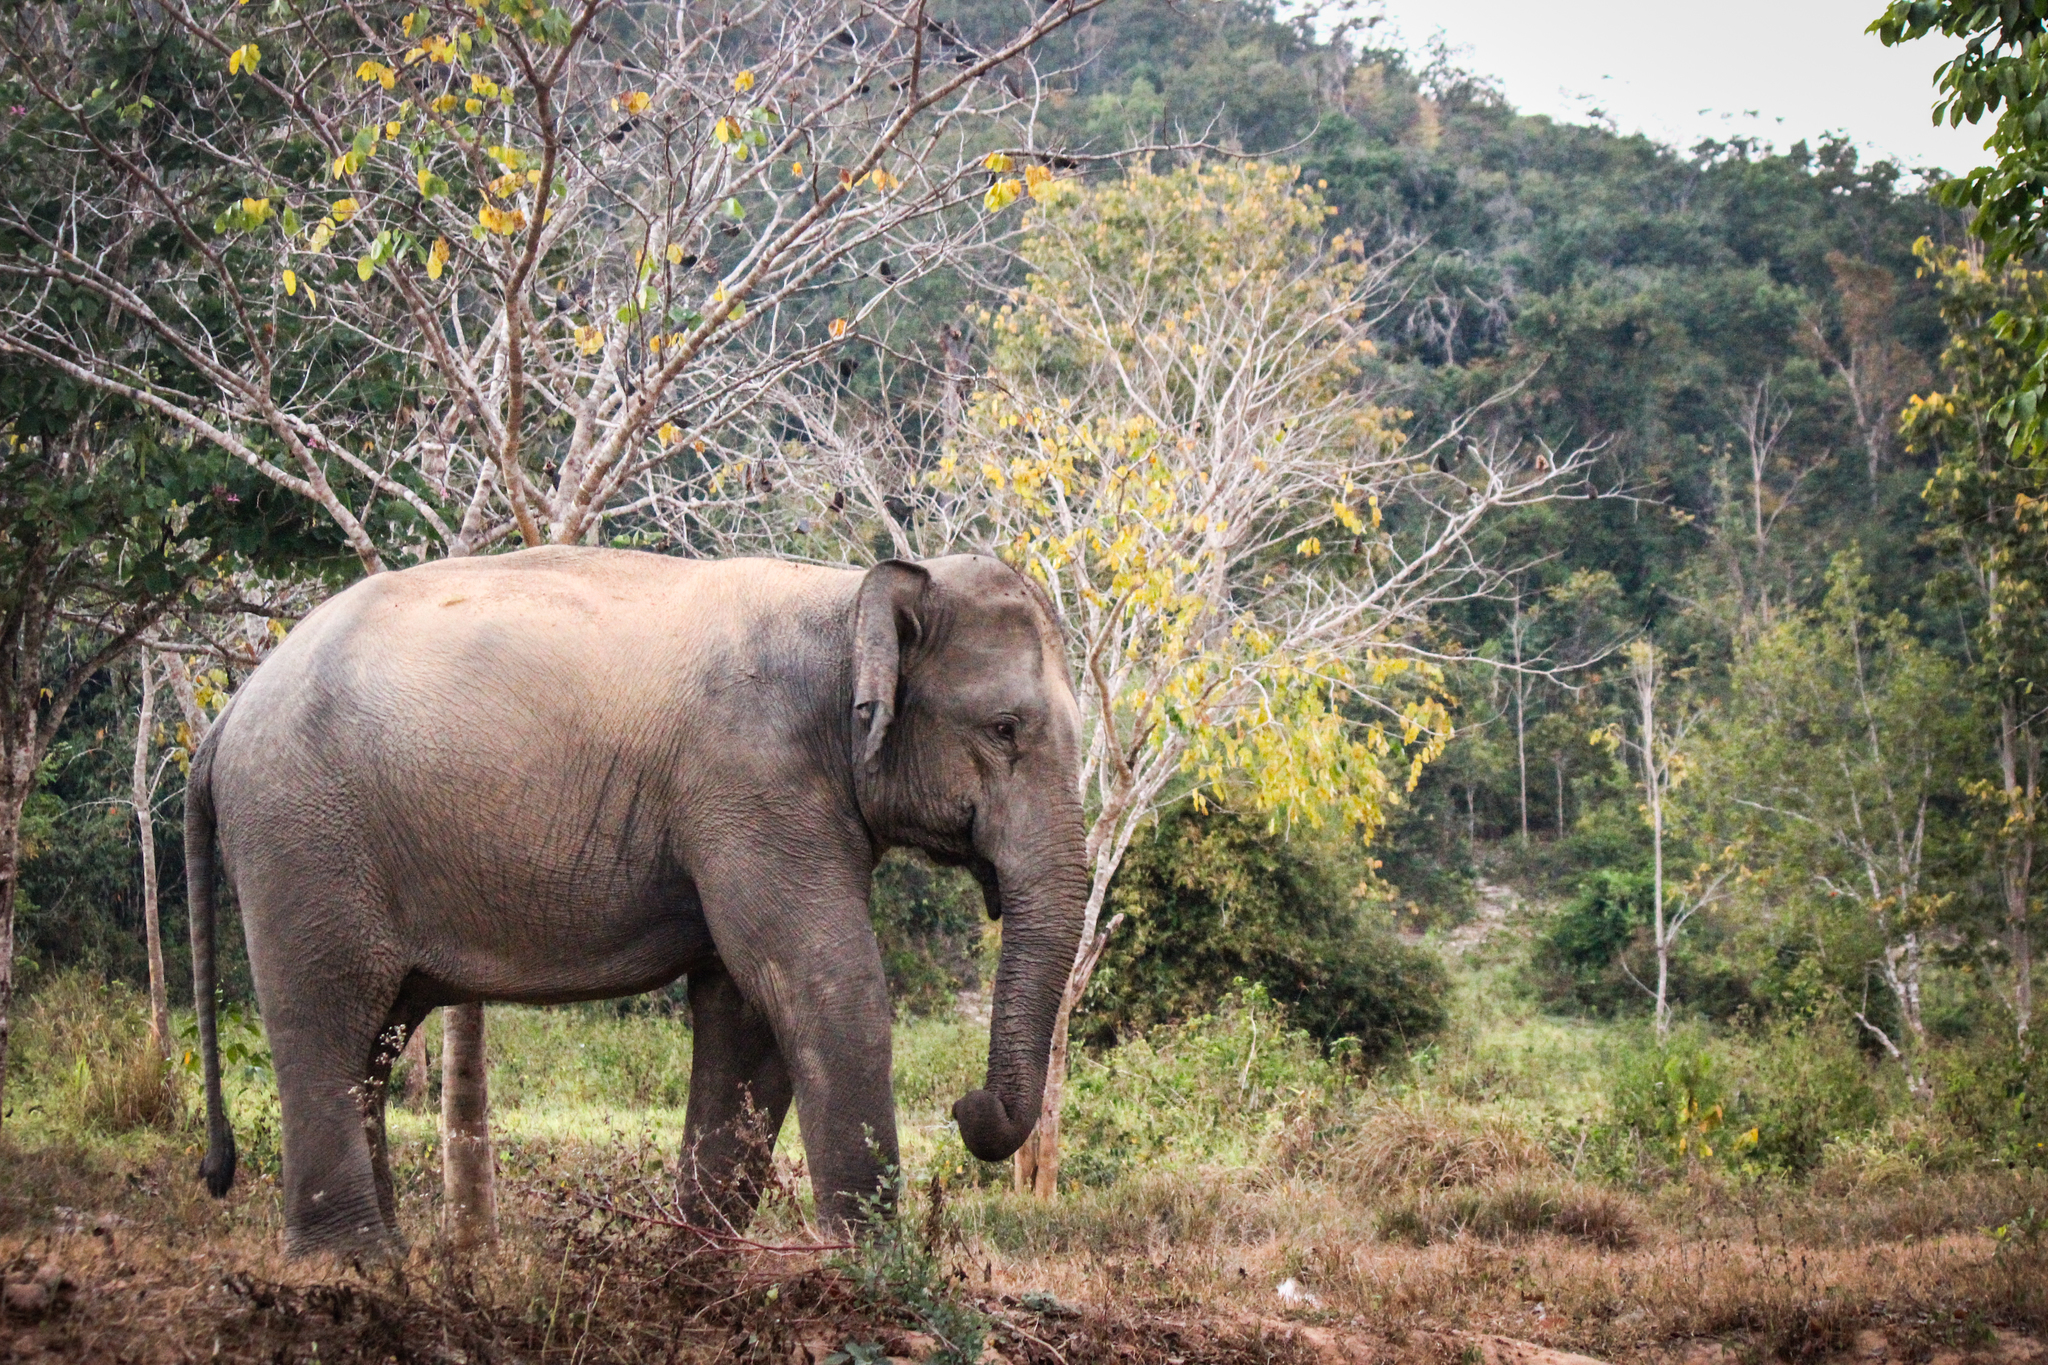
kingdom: Animalia
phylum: Chordata
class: Mammalia
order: Proboscidea
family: Elephantidae
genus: Elephas
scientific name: Elephas maximus
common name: Asian elephant
